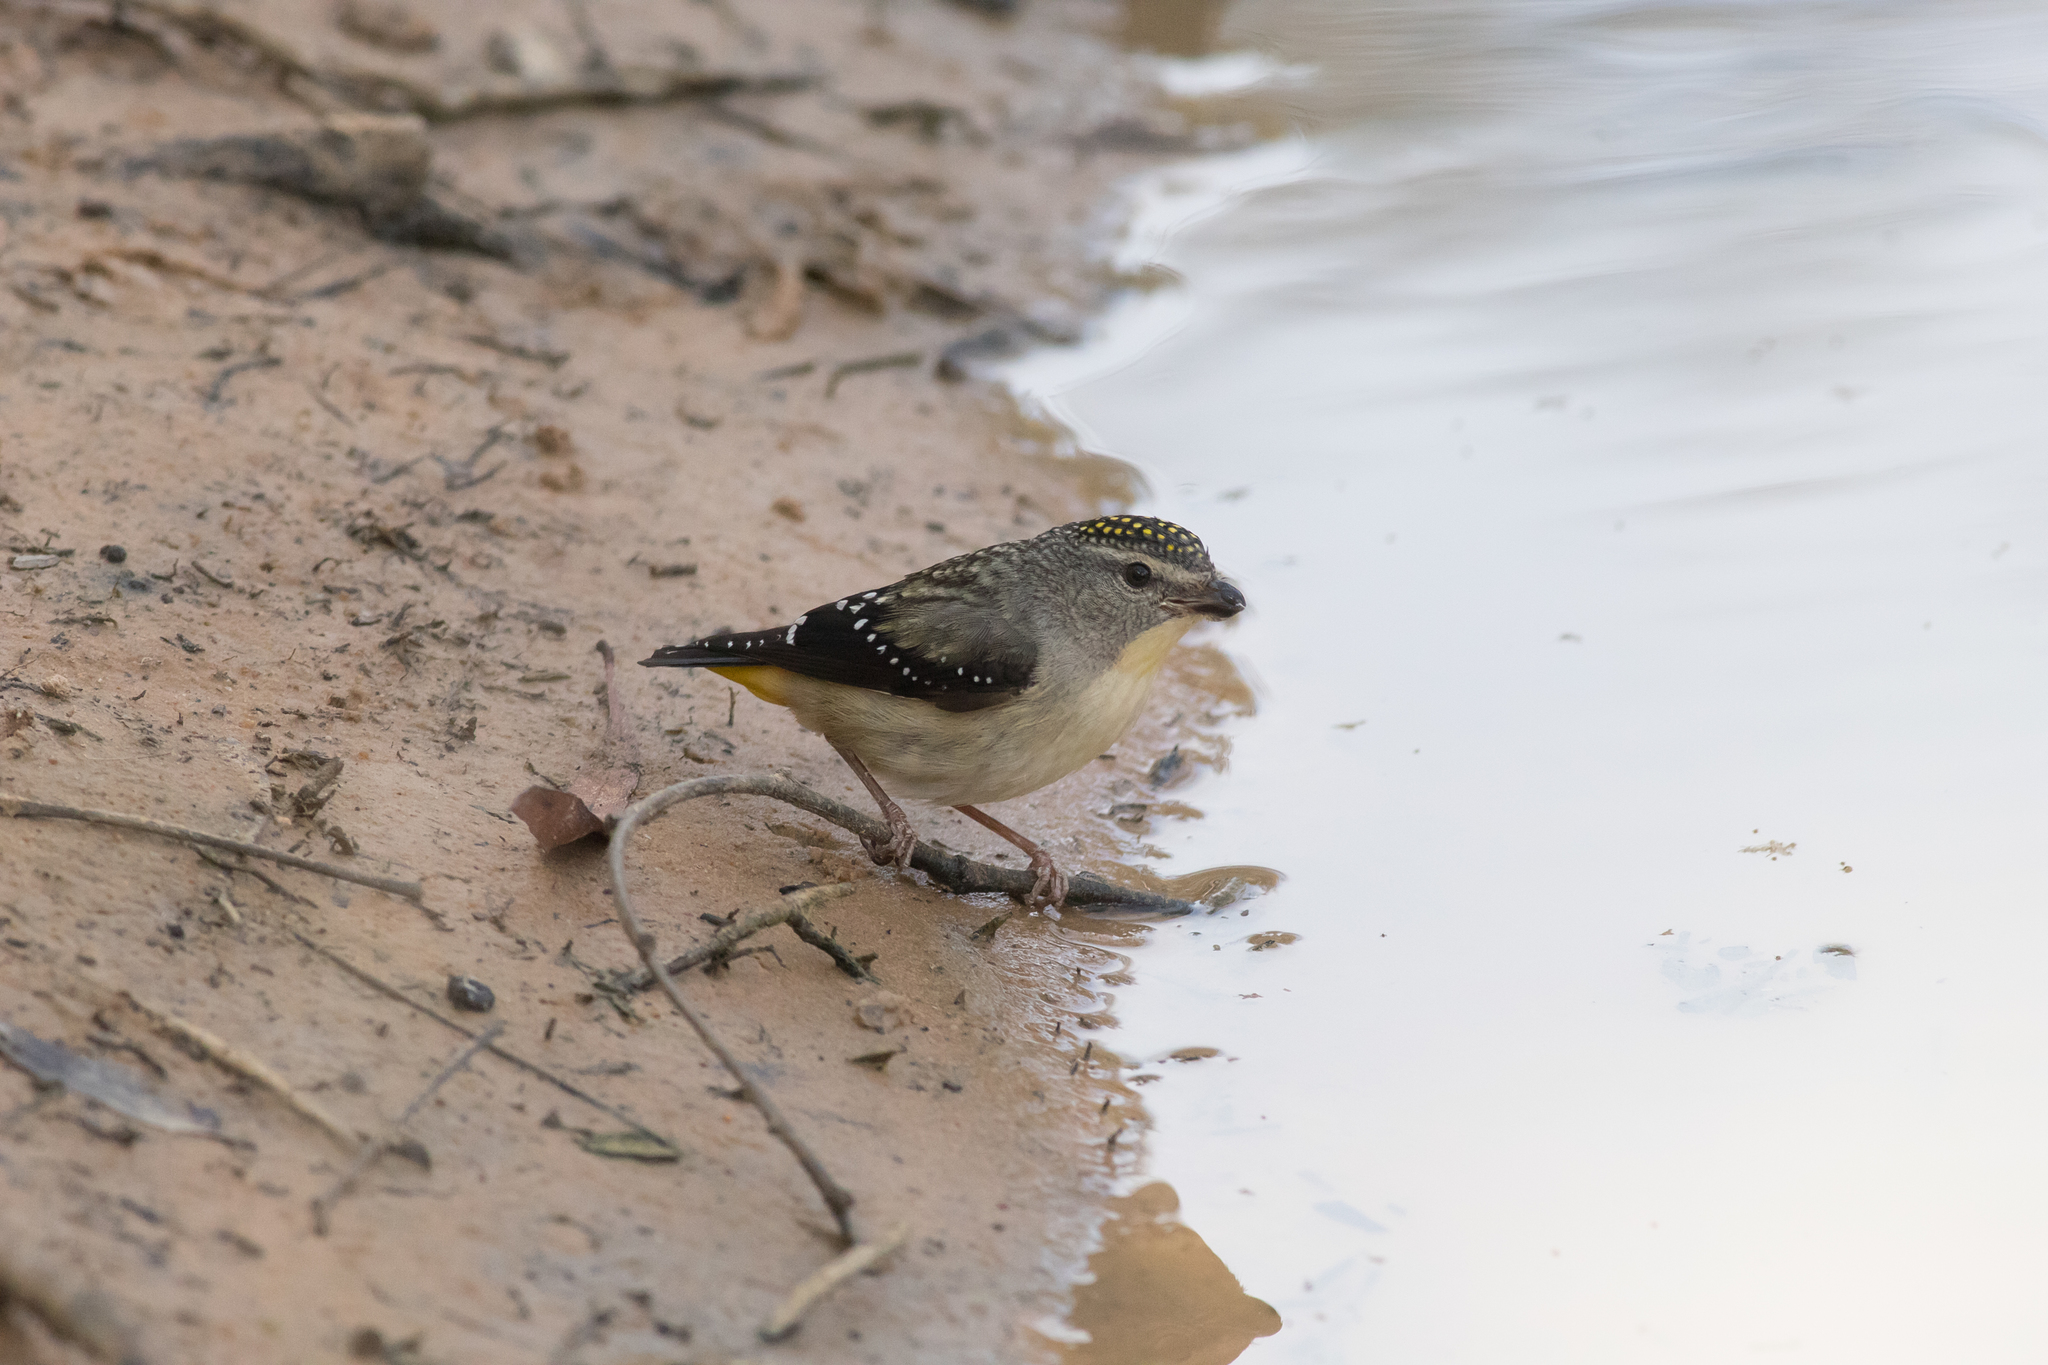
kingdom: Animalia
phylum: Chordata
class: Aves
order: Passeriformes
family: Pardalotidae
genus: Pardalotus
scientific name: Pardalotus punctatus
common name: Spotted pardalote
